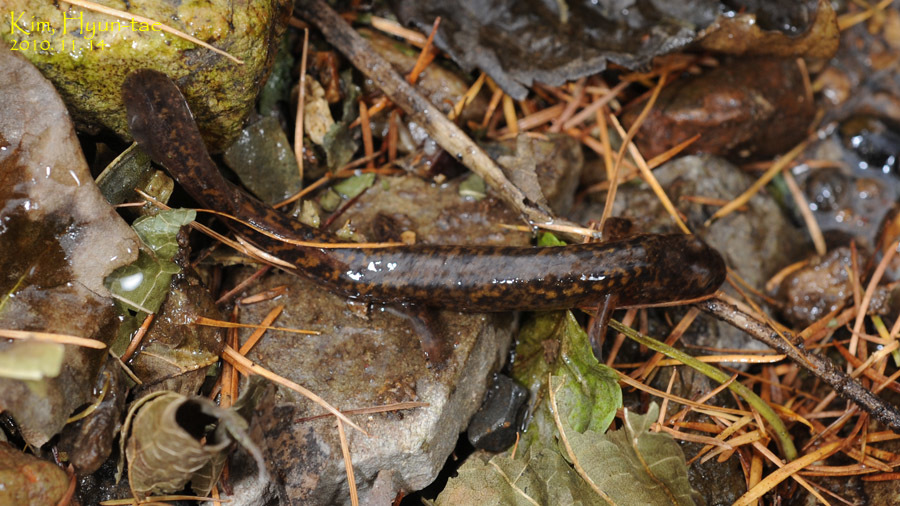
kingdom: Animalia
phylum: Chordata
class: Amphibia
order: Caudata
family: Hynobiidae
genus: Onychodactylus
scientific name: Onychodactylus koreanus
